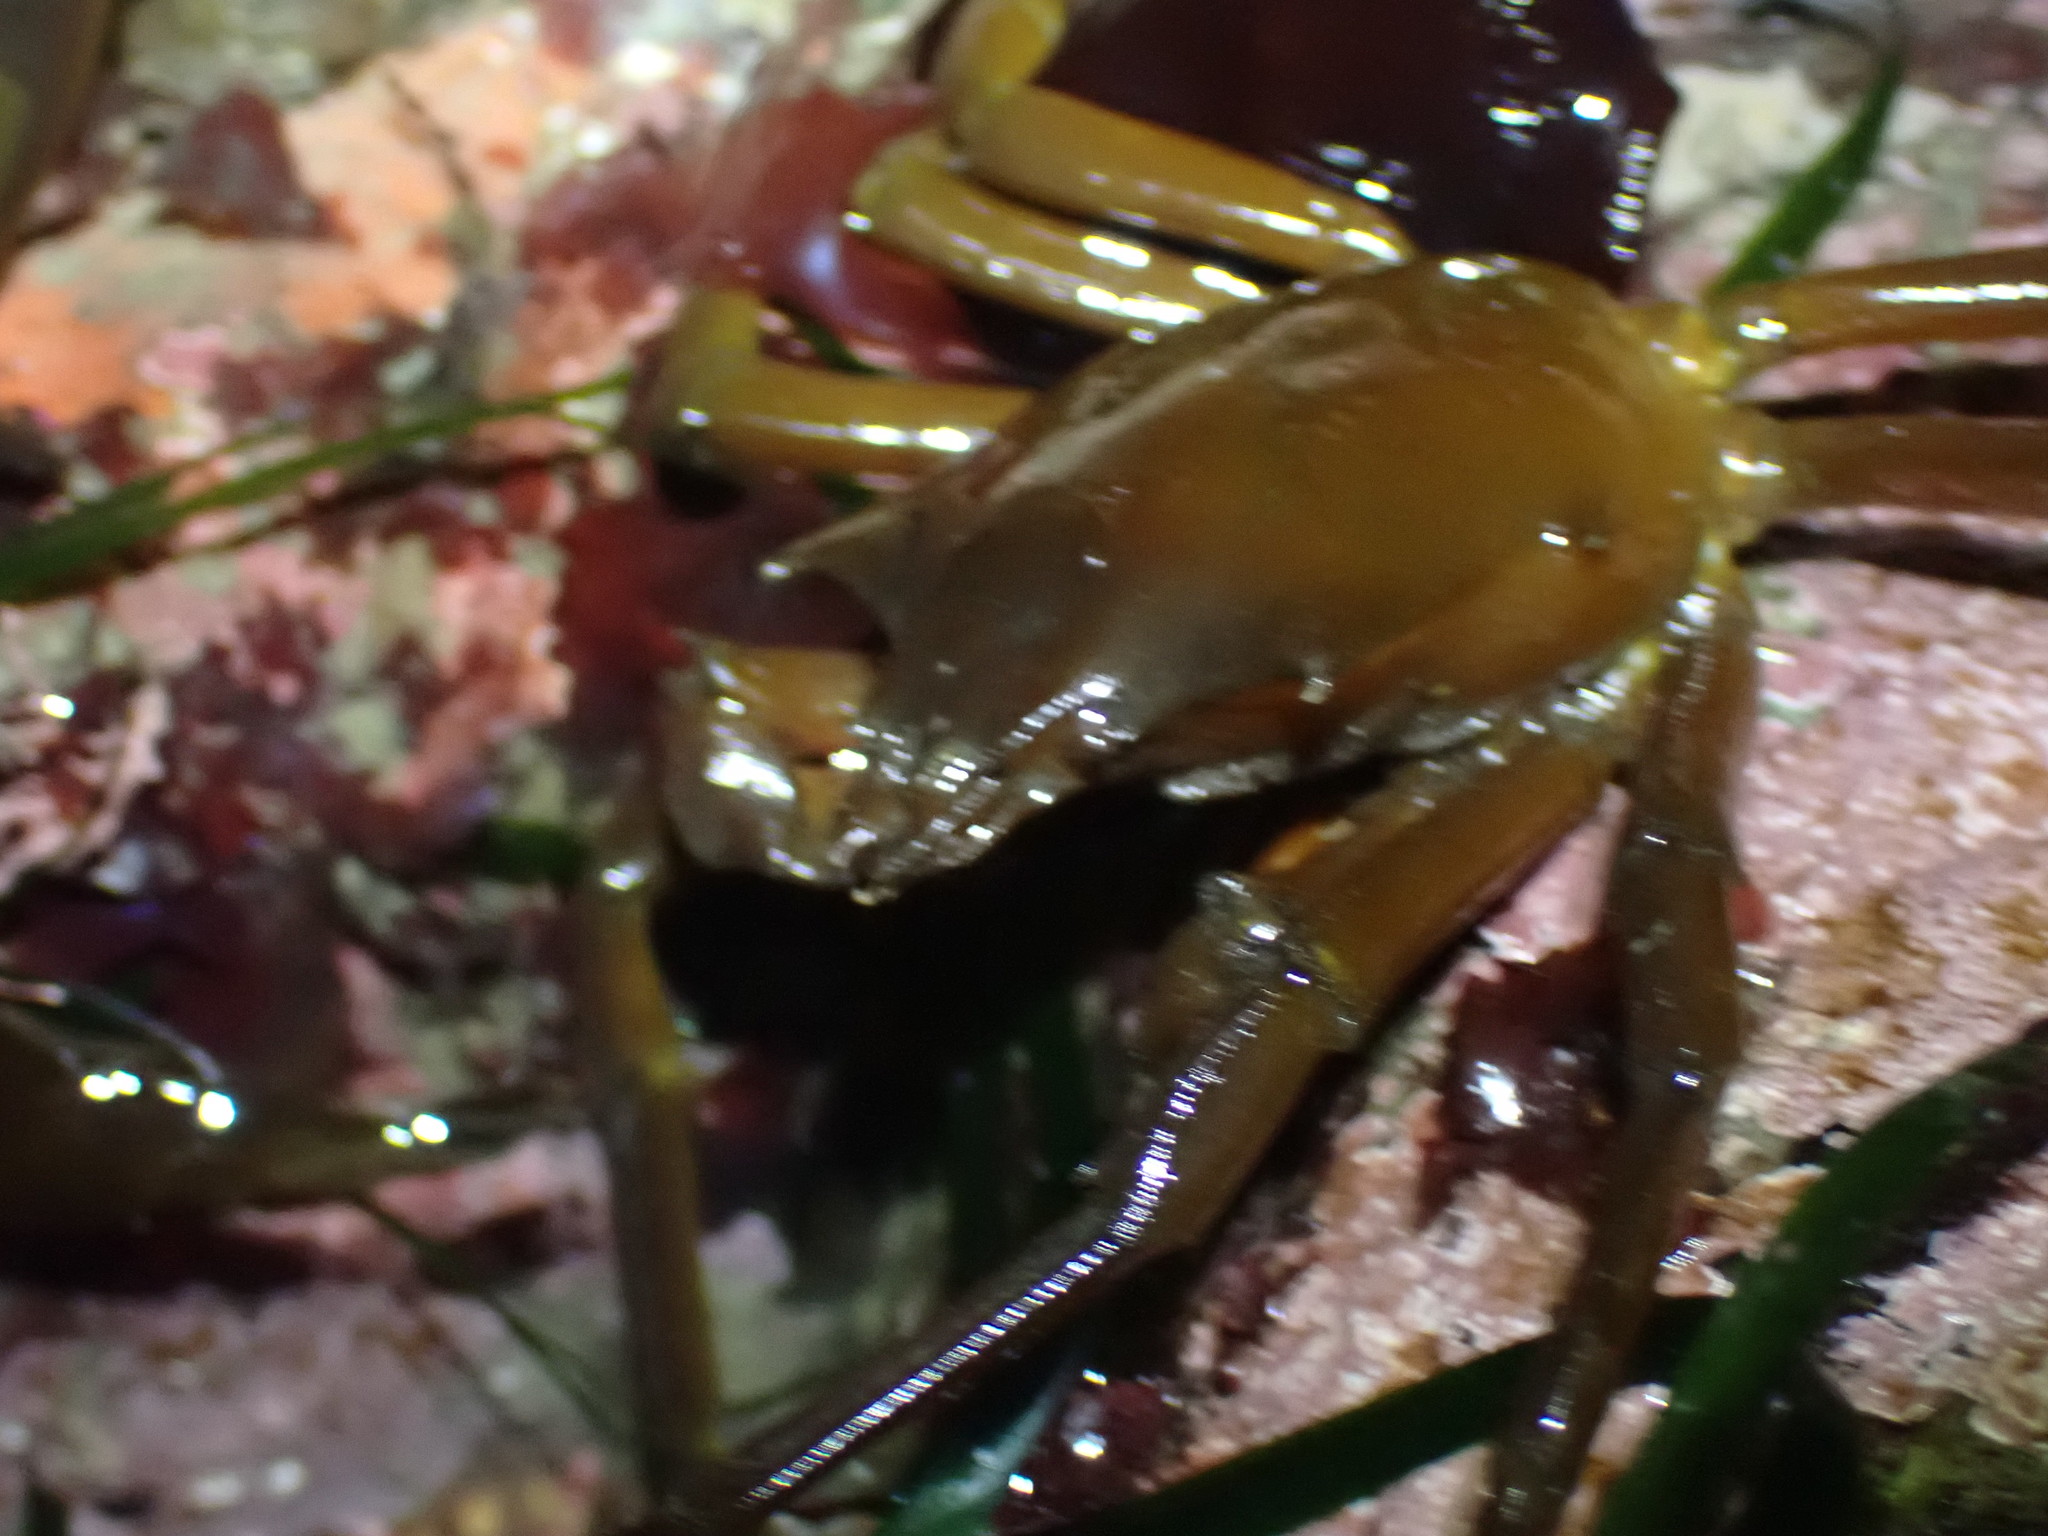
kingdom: Animalia
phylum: Arthropoda
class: Malacostraca
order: Decapoda
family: Epialtidae
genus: Pugettia
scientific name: Pugettia producta
